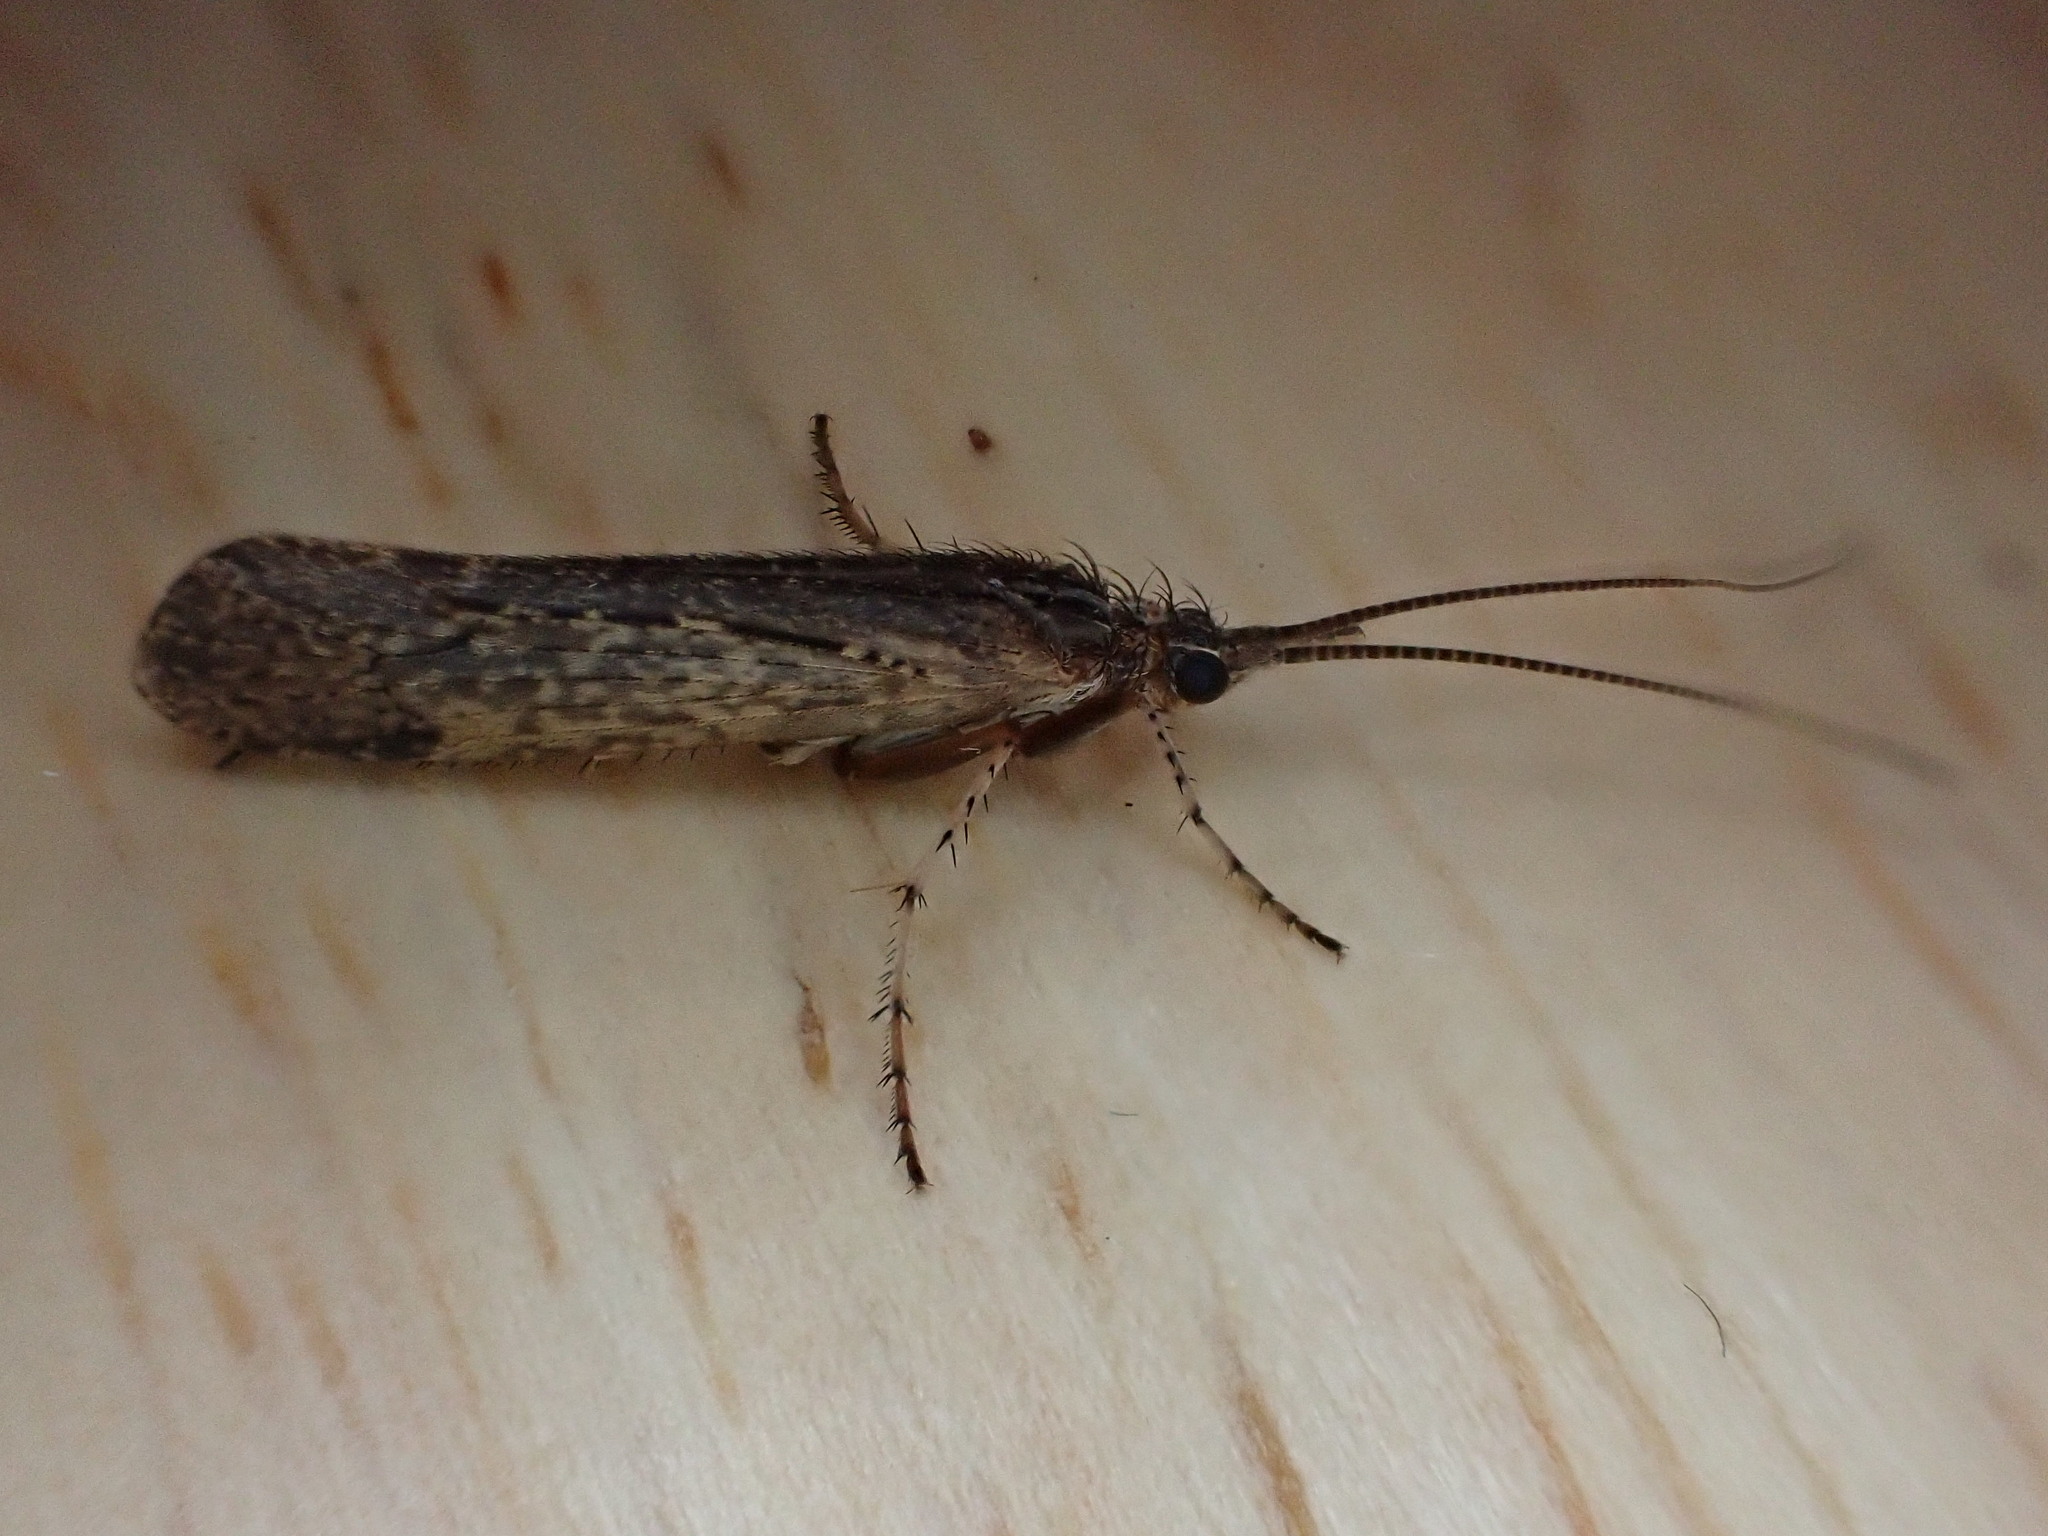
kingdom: Animalia
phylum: Arthropoda
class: Insecta
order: Trichoptera
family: Limnephilidae
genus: Limnephilus
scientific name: Limnephilus affinis
